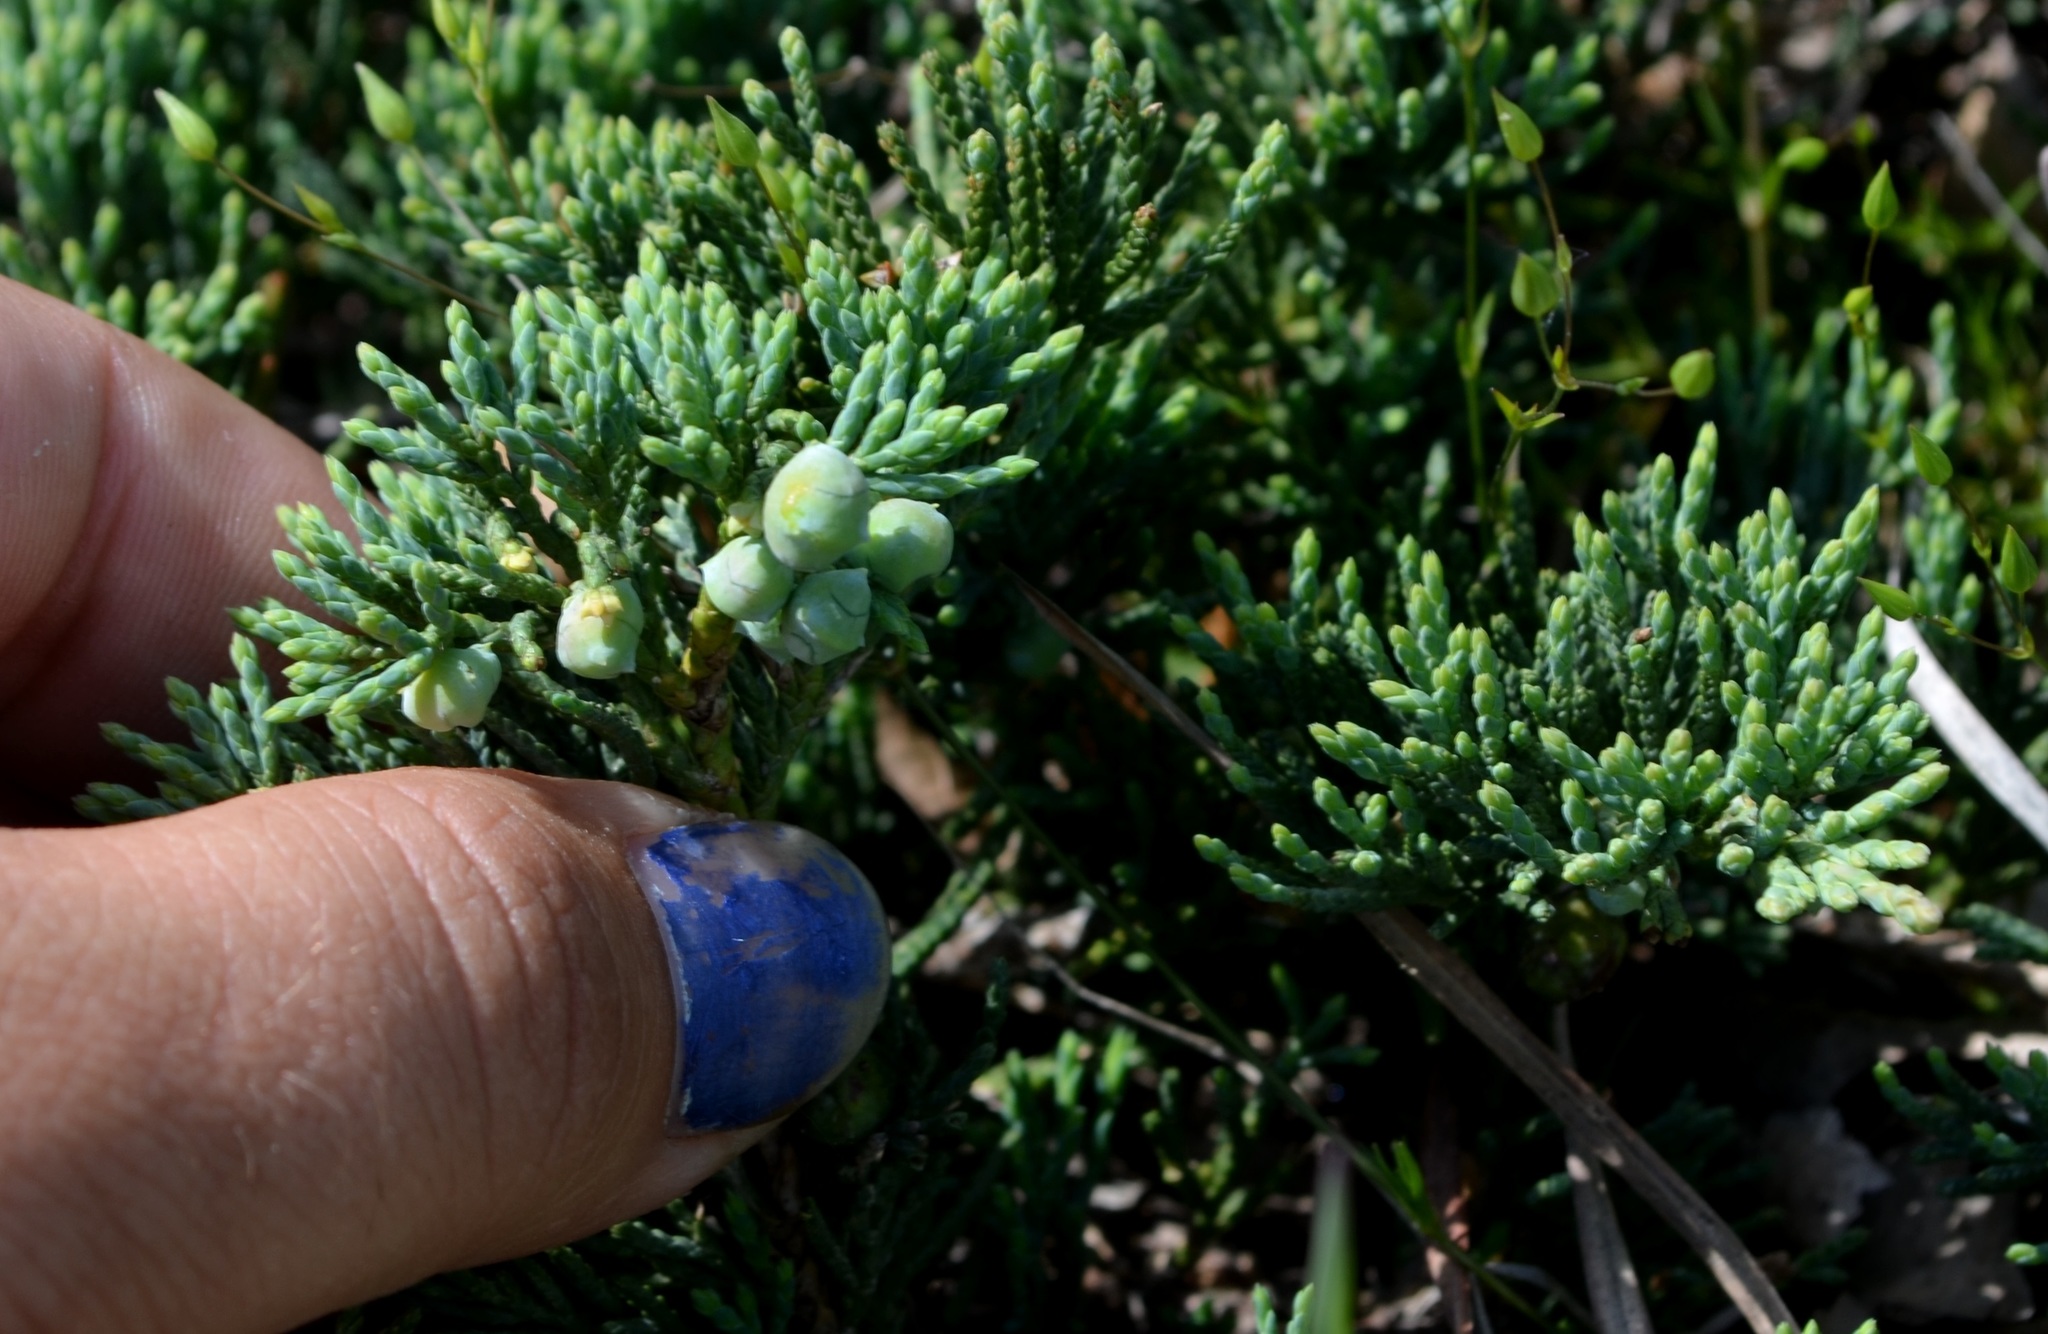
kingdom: Plantae
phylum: Tracheophyta
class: Pinopsida
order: Pinales
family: Cupressaceae
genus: Juniperus
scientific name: Juniperus horizontalis
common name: Creeping juniper
